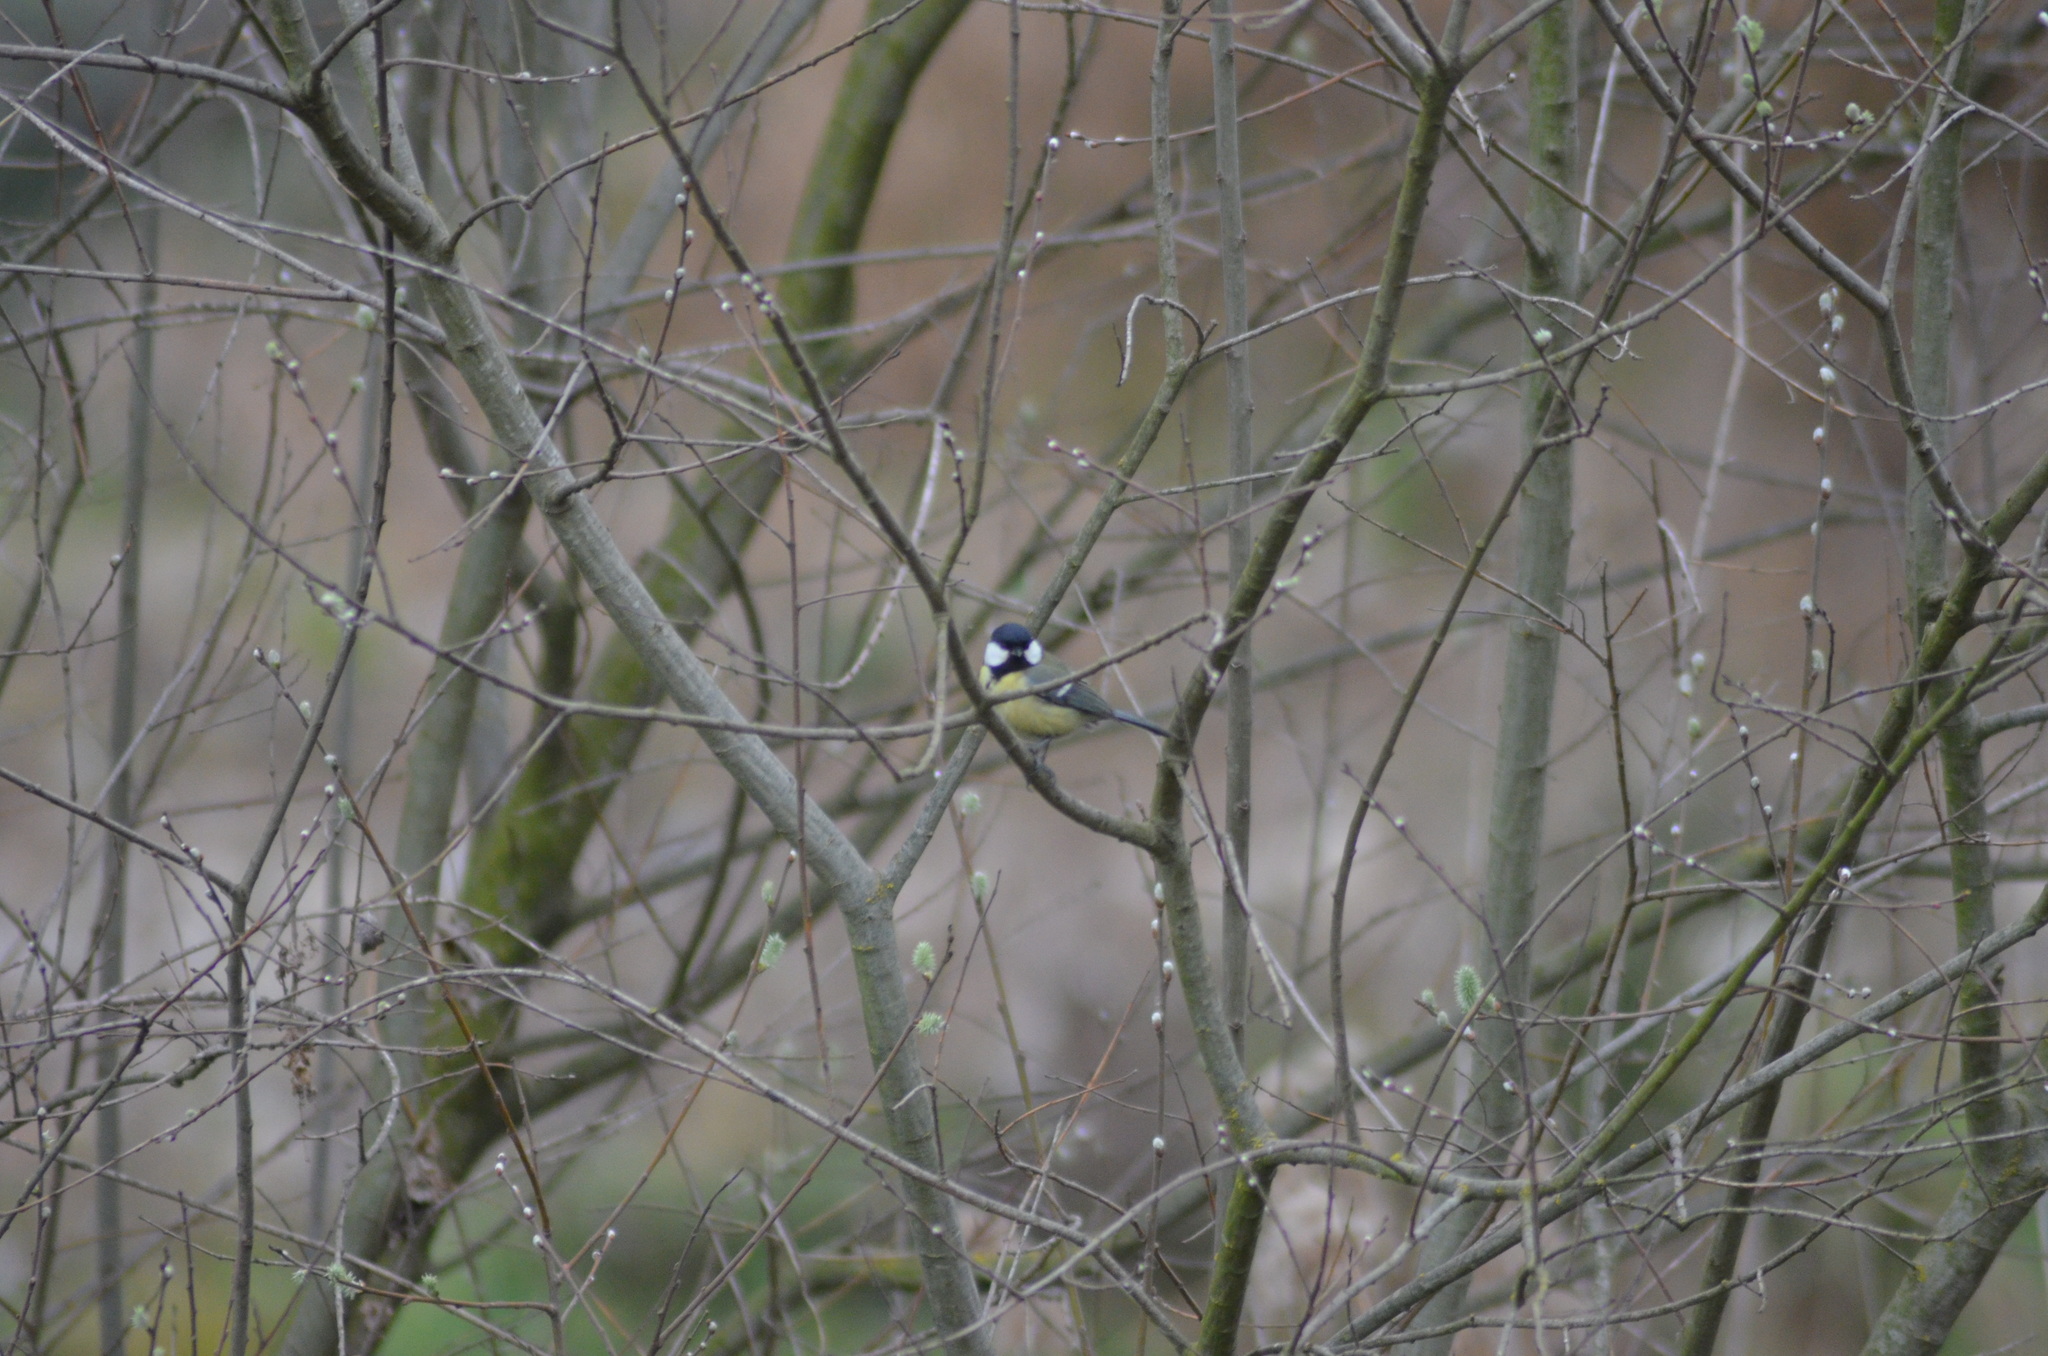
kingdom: Animalia
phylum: Chordata
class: Aves
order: Passeriformes
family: Paridae
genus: Parus
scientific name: Parus major
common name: Great tit
